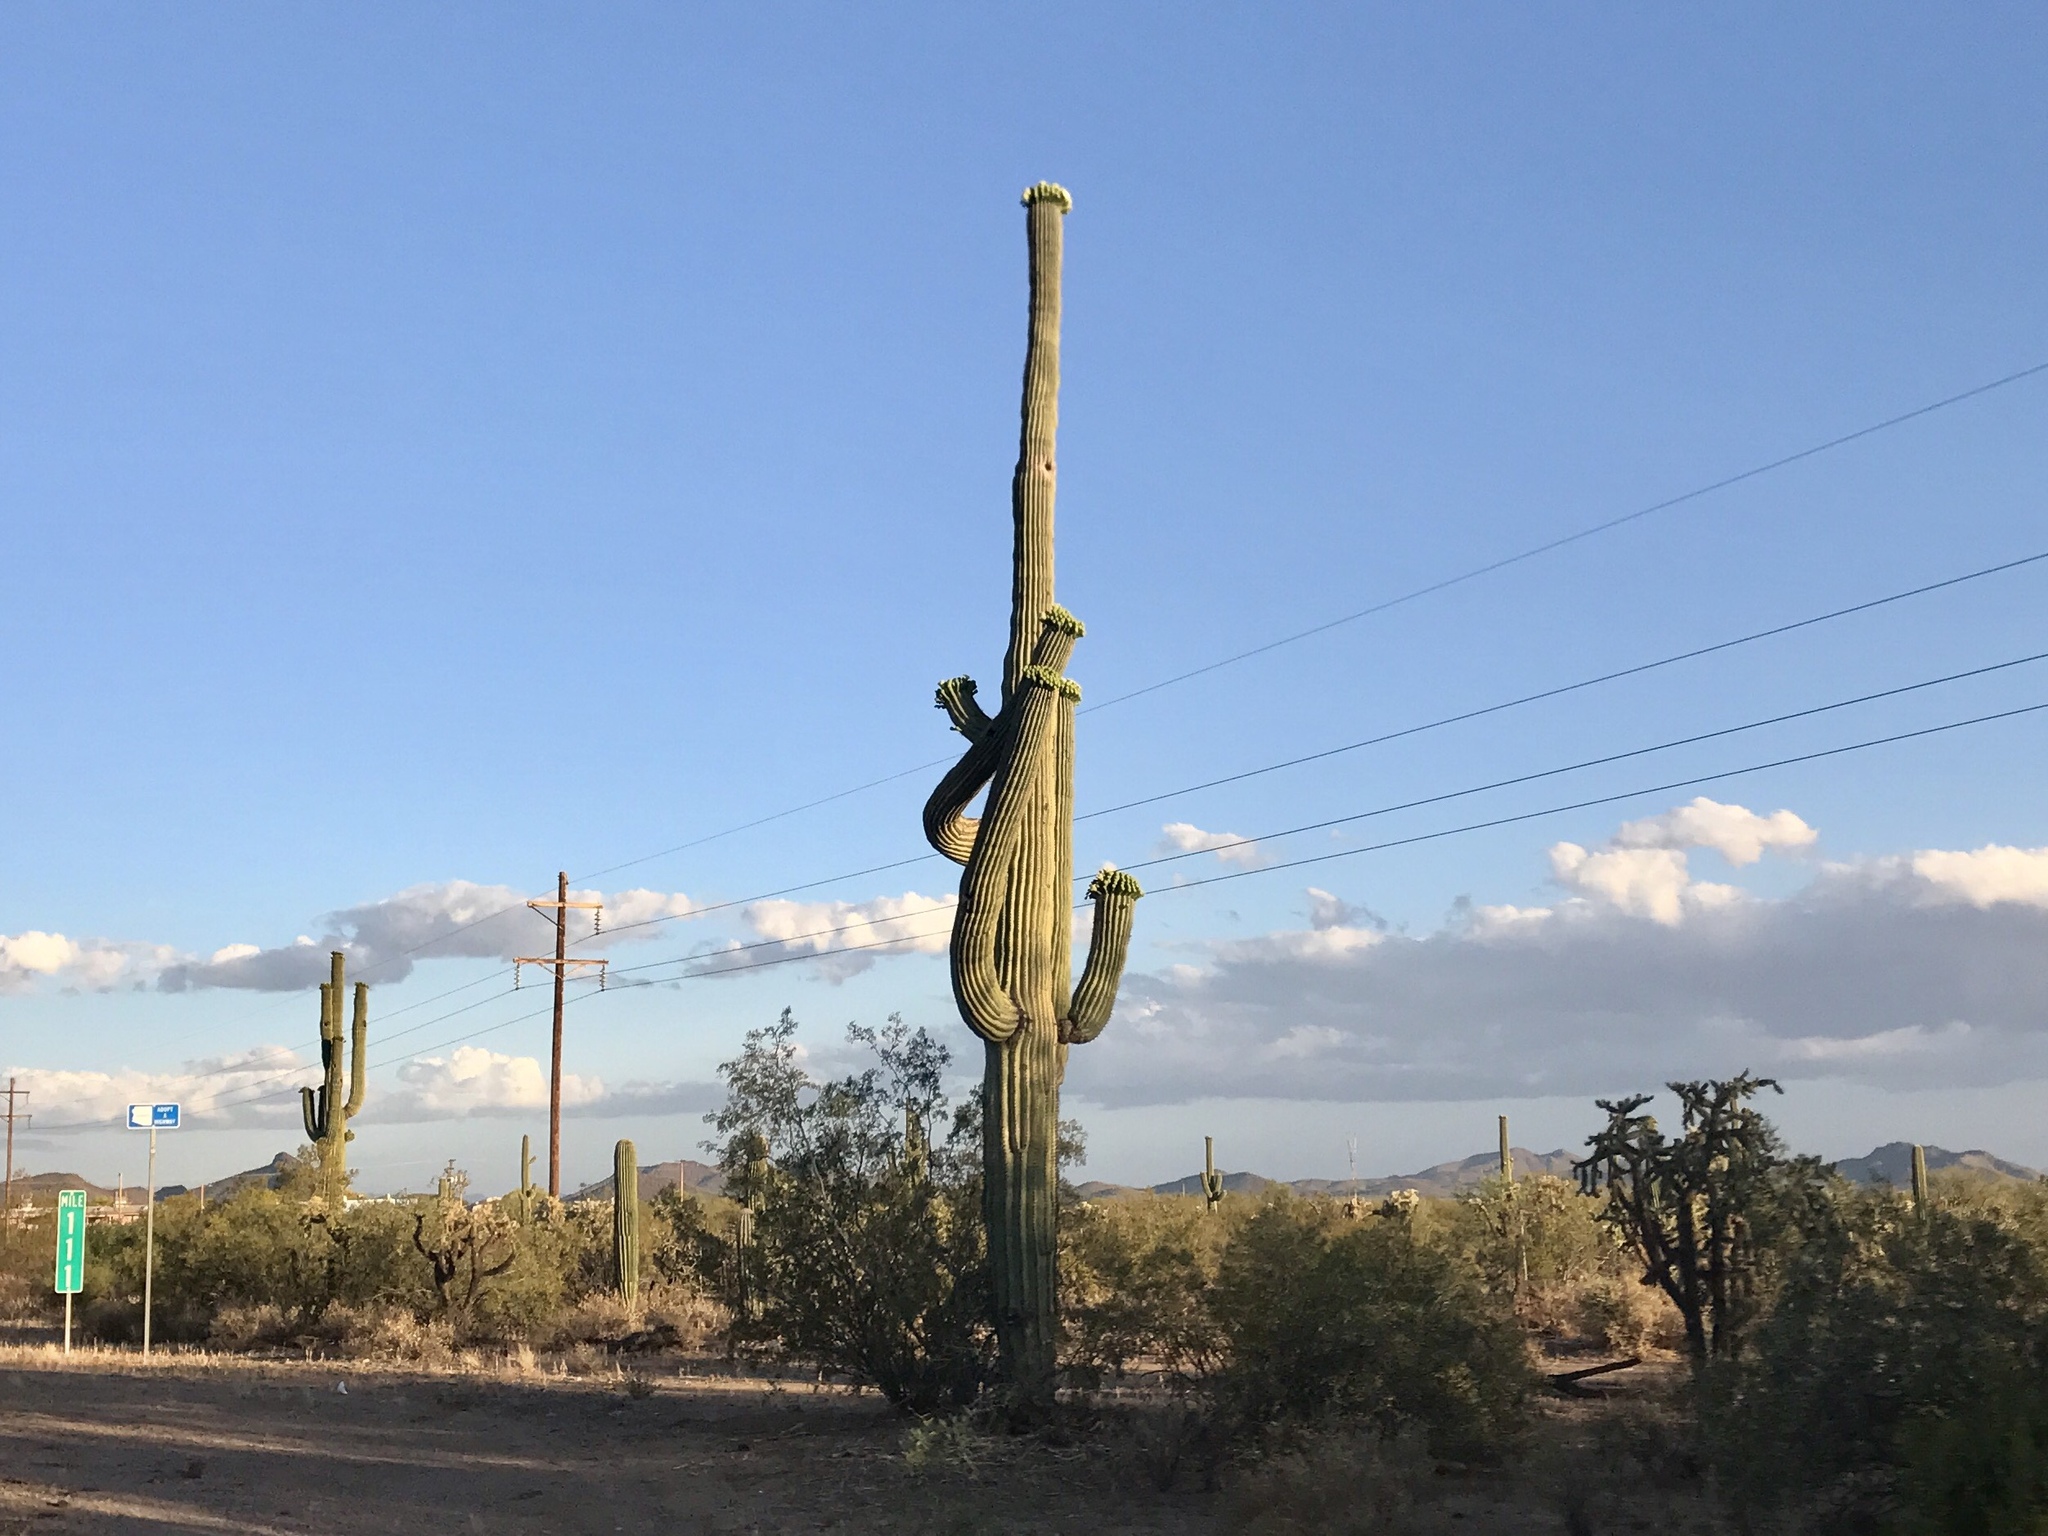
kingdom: Plantae
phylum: Tracheophyta
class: Magnoliopsida
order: Caryophyllales
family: Cactaceae
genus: Carnegiea
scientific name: Carnegiea gigantea
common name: Saguaro
